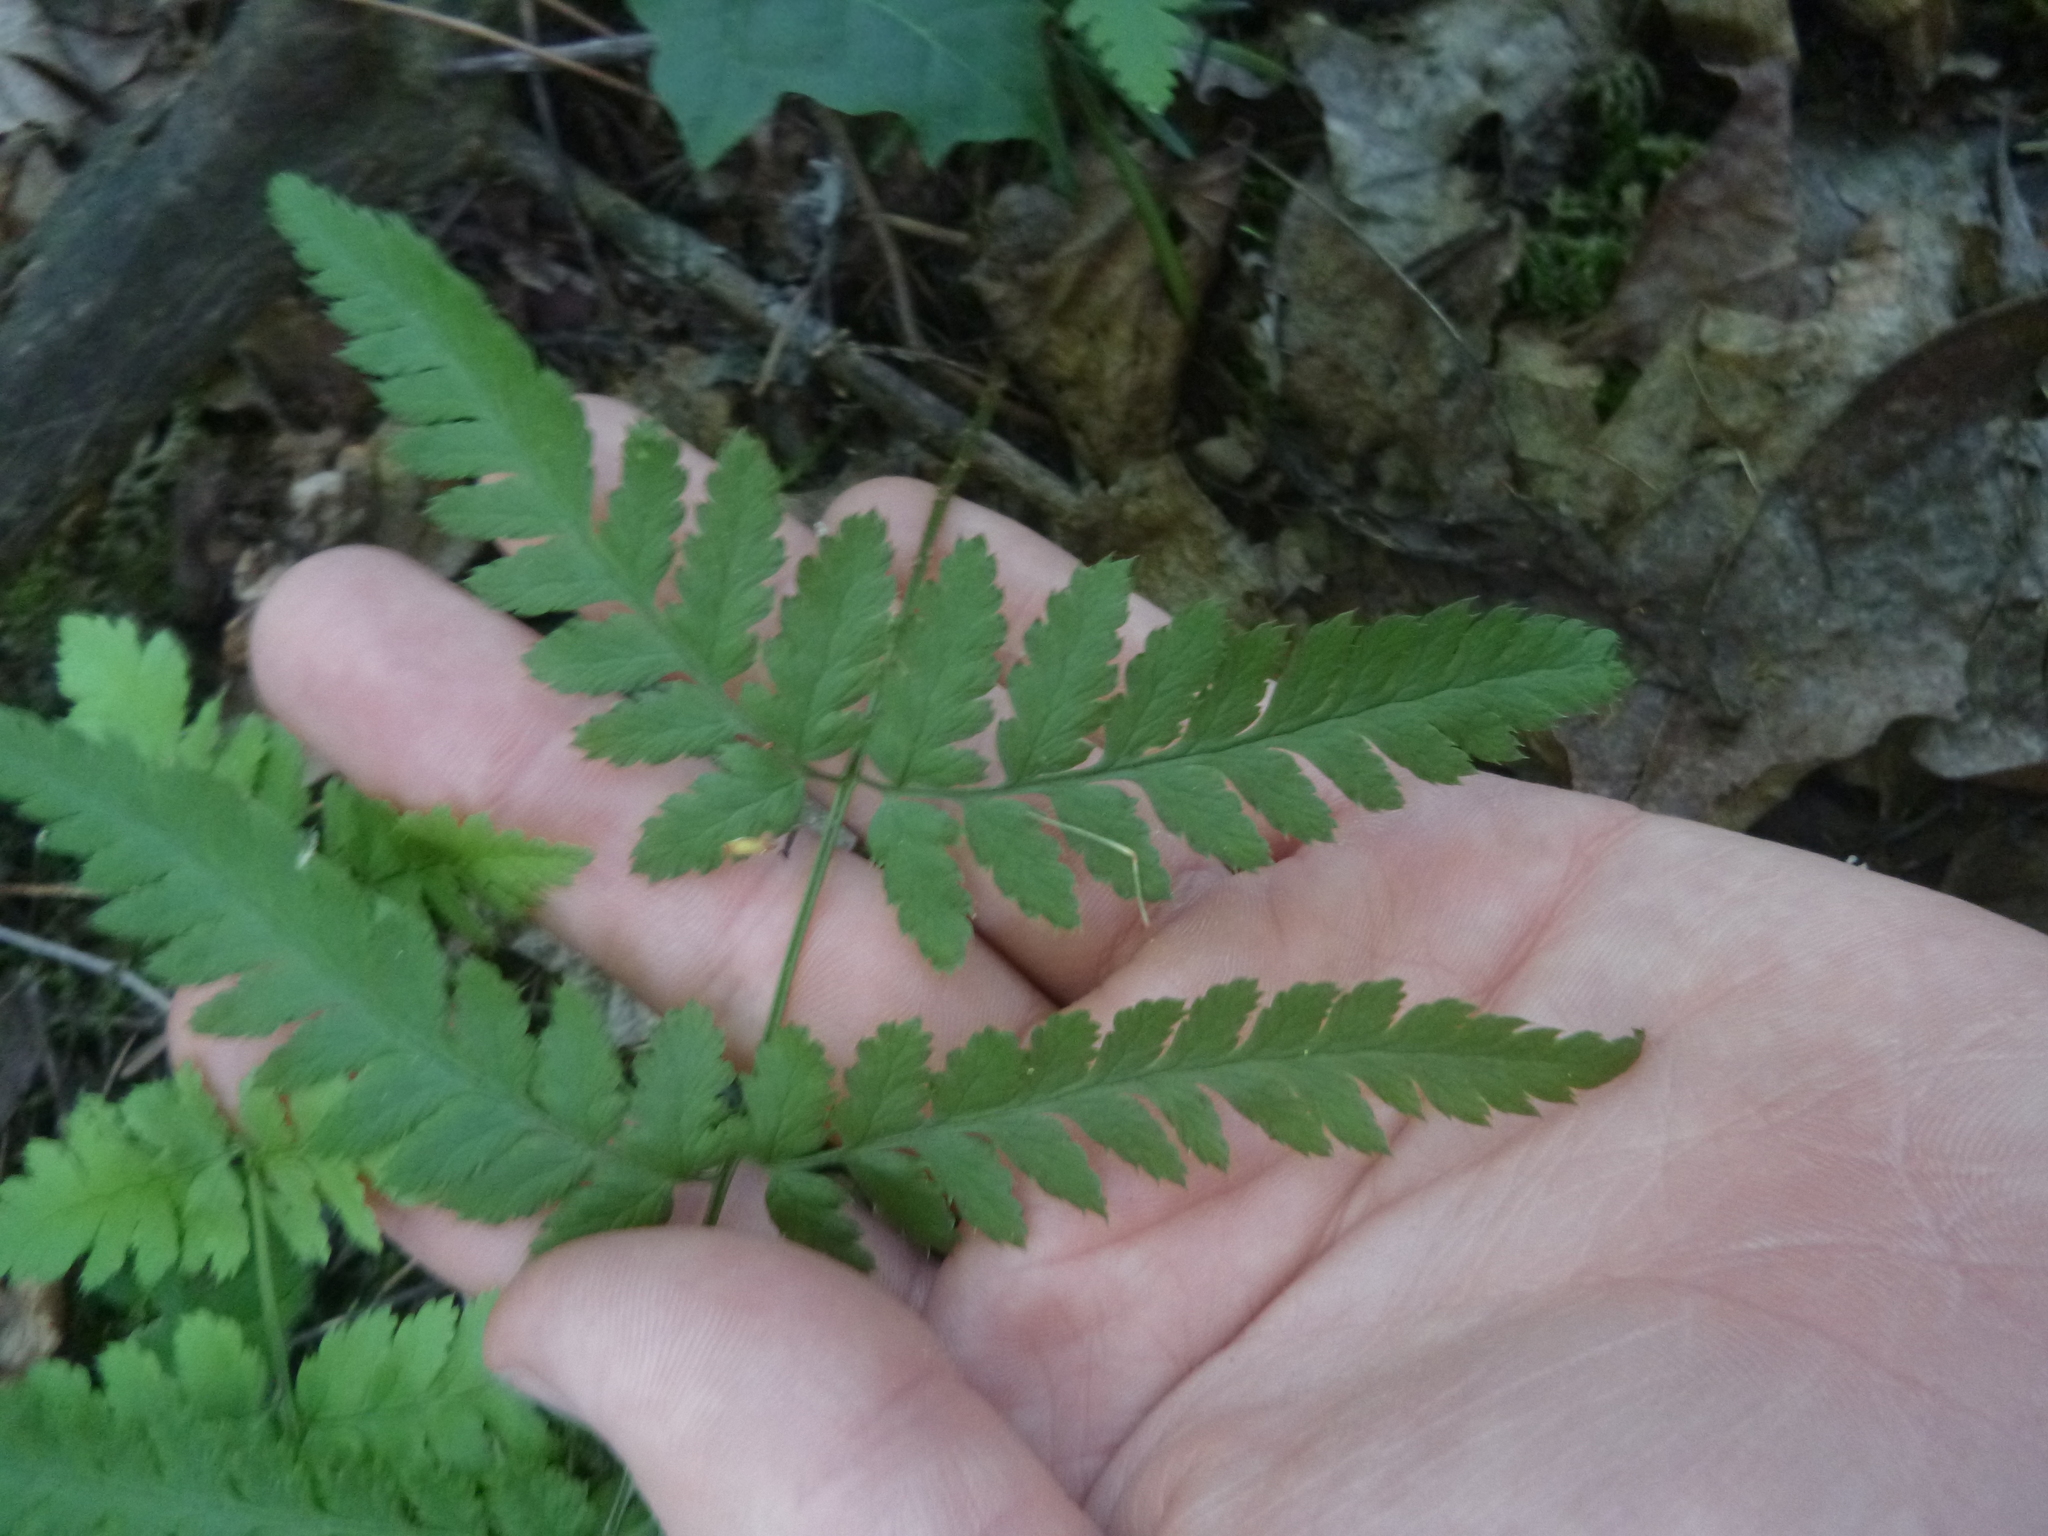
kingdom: Plantae
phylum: Tracheophyta
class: Polypodiopsida
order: Polypodiales
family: Dryopteridaceae
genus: Dryopteris
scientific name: Dryopteris carthusiana
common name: Narrow buckler-fern
